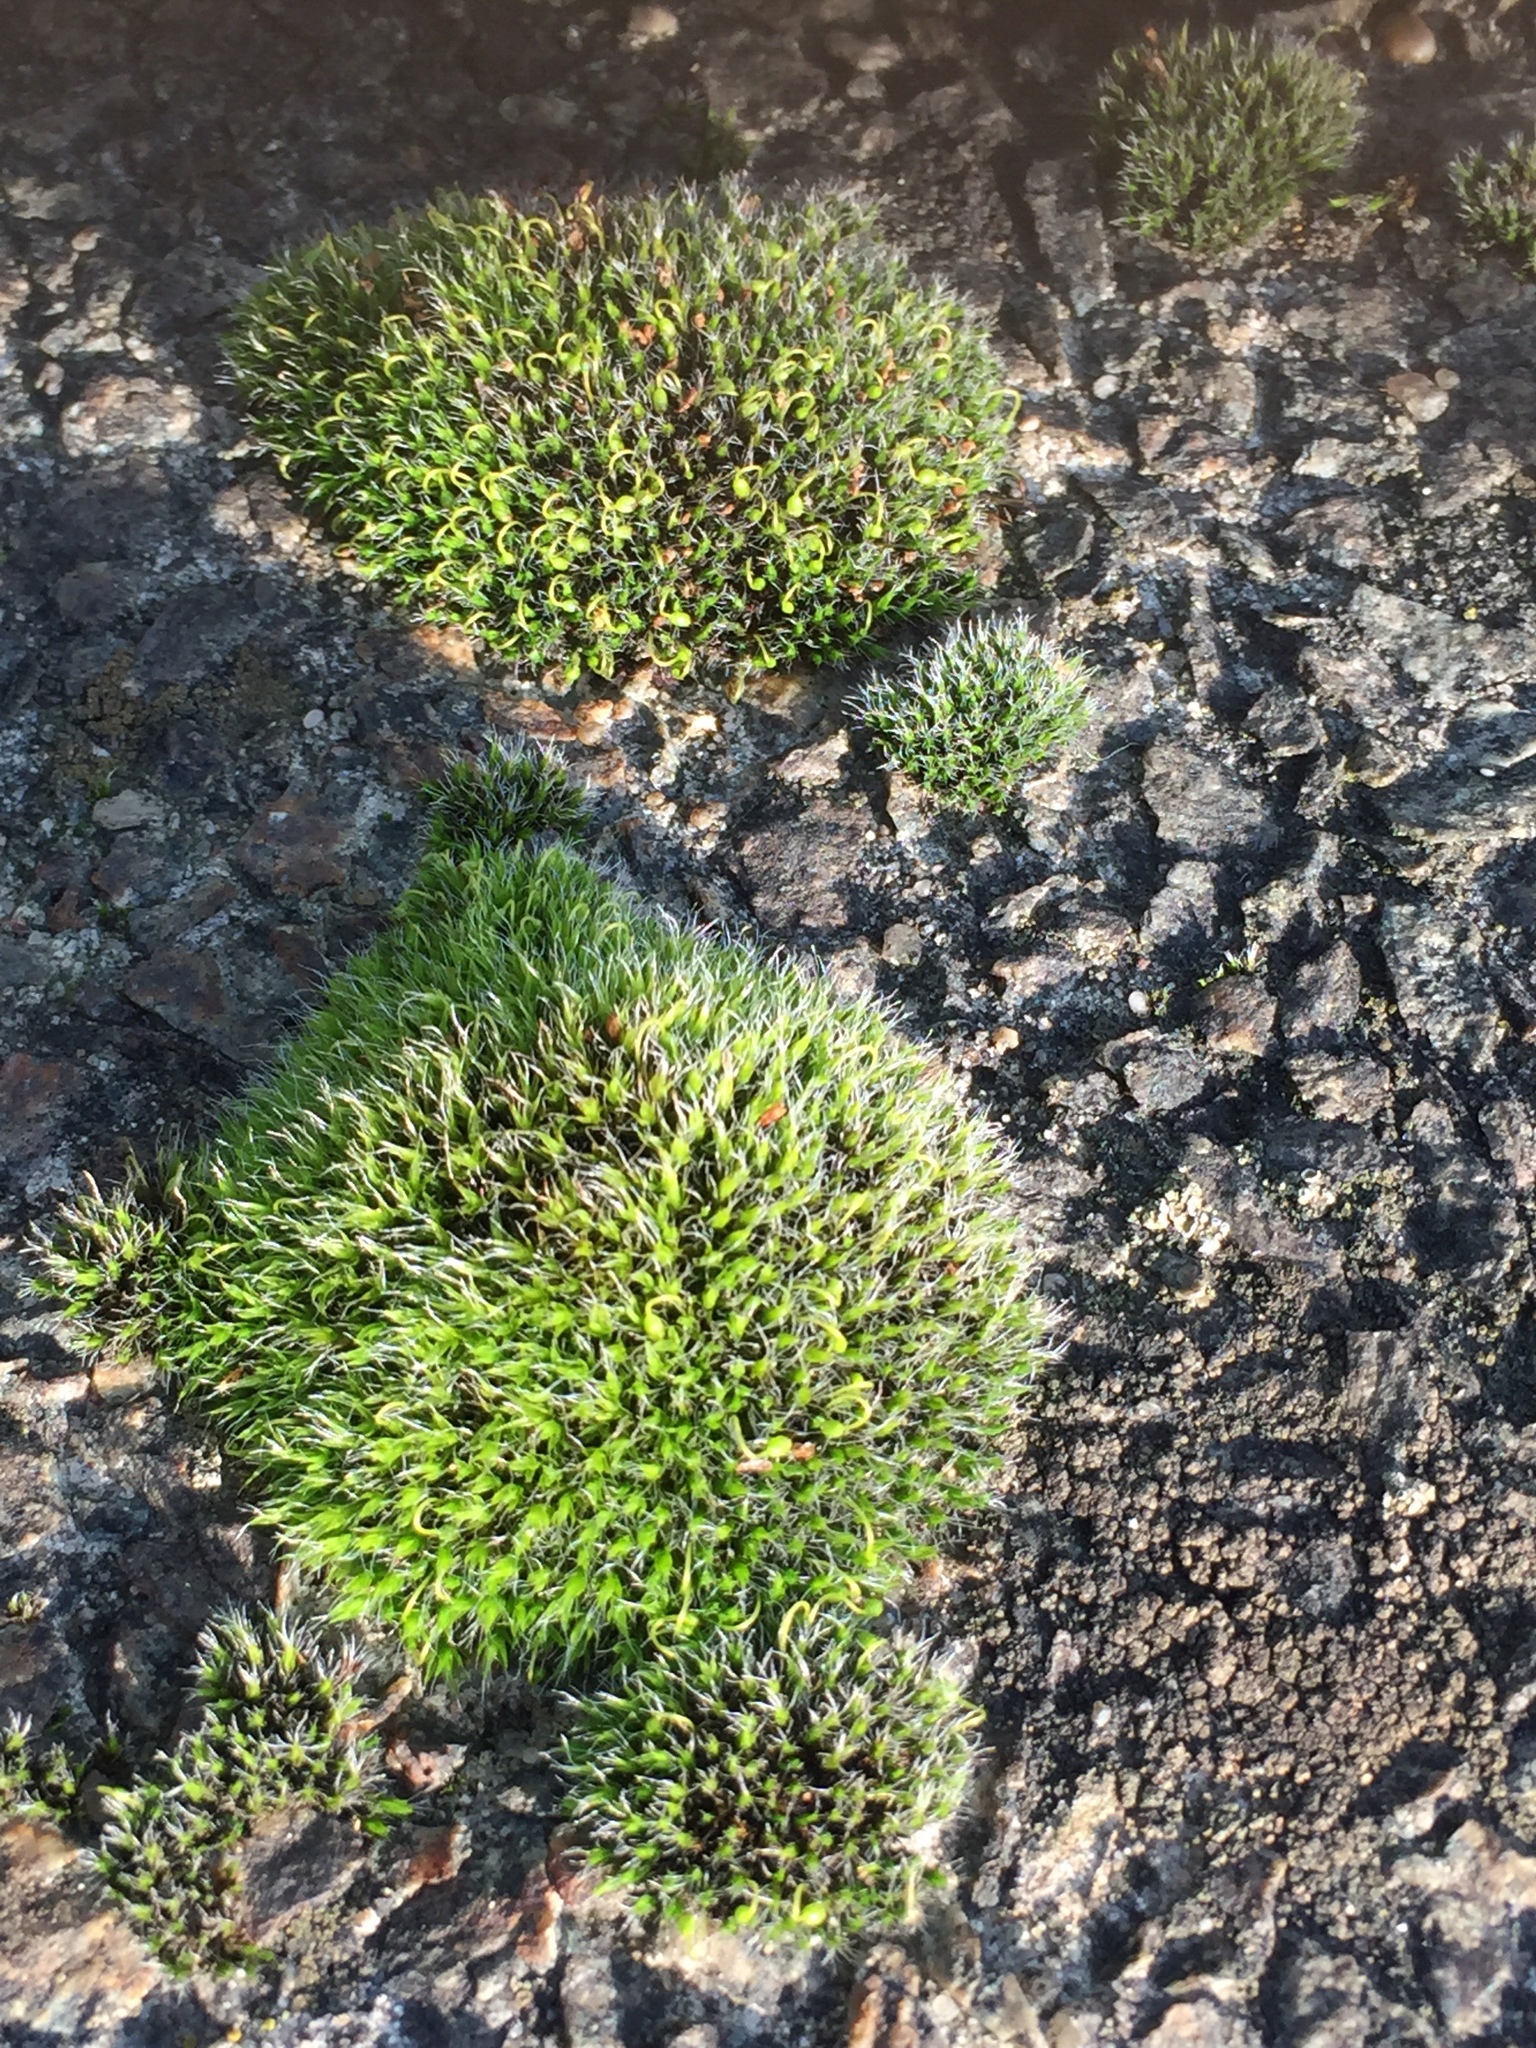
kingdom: Plantae
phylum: Bryophyta
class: Bryopsida
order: Grimmiales
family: Grimmiaceae
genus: Grimmia
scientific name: Grimmia pulvinata
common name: Grey-cushioned grimmia
